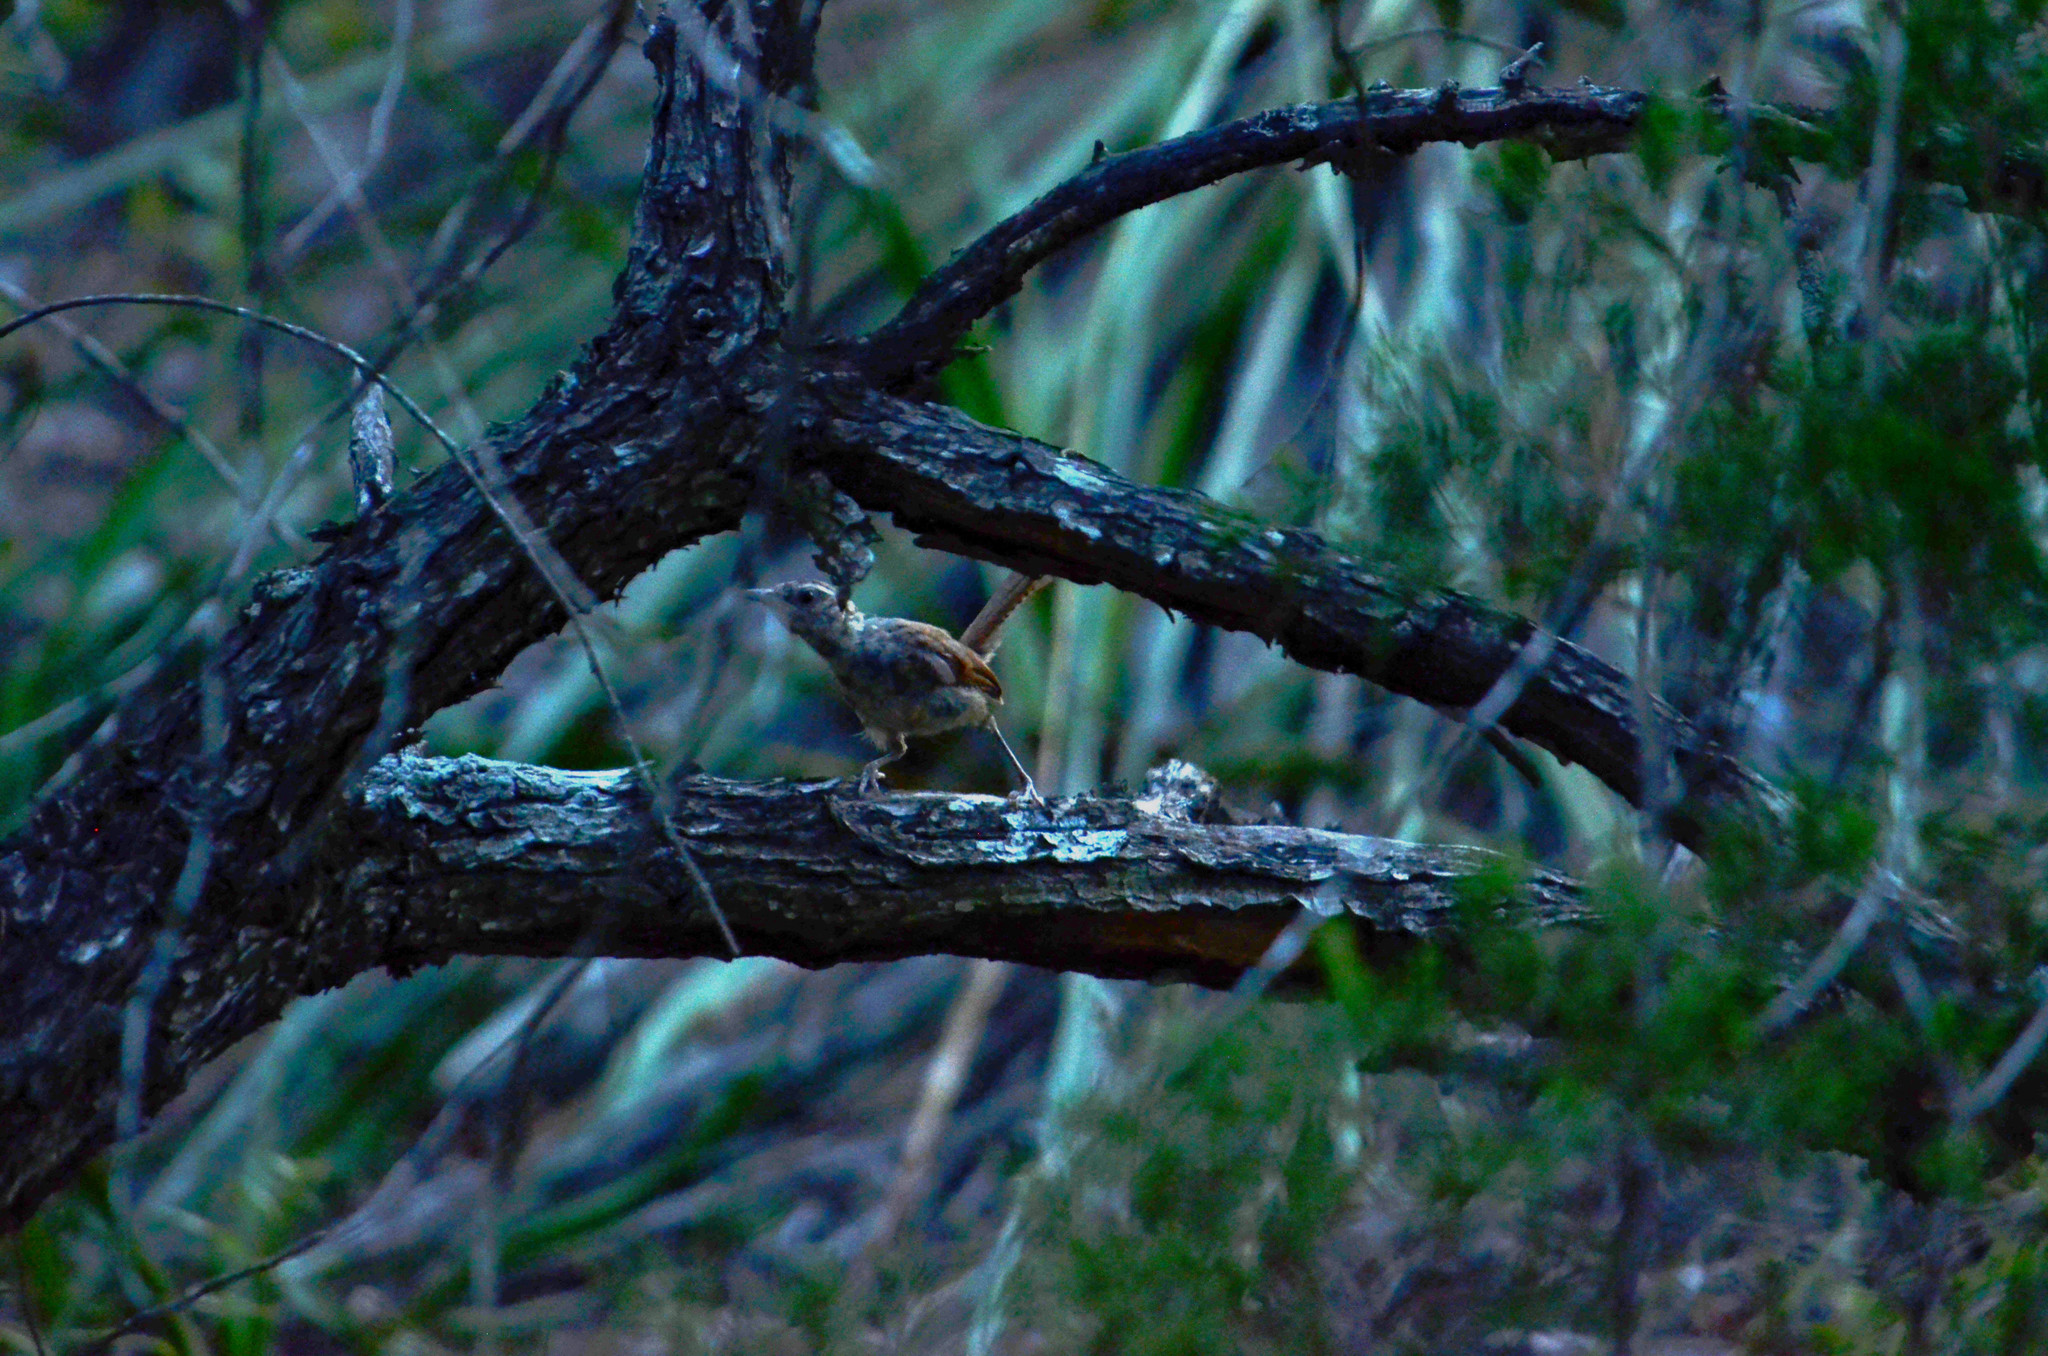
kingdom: Animalia
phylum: Chordata
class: Aves
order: Passeriformes
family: Troglodytidae
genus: Thryothorus
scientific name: Thryothorus ludovicianus
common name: Carolina wren
